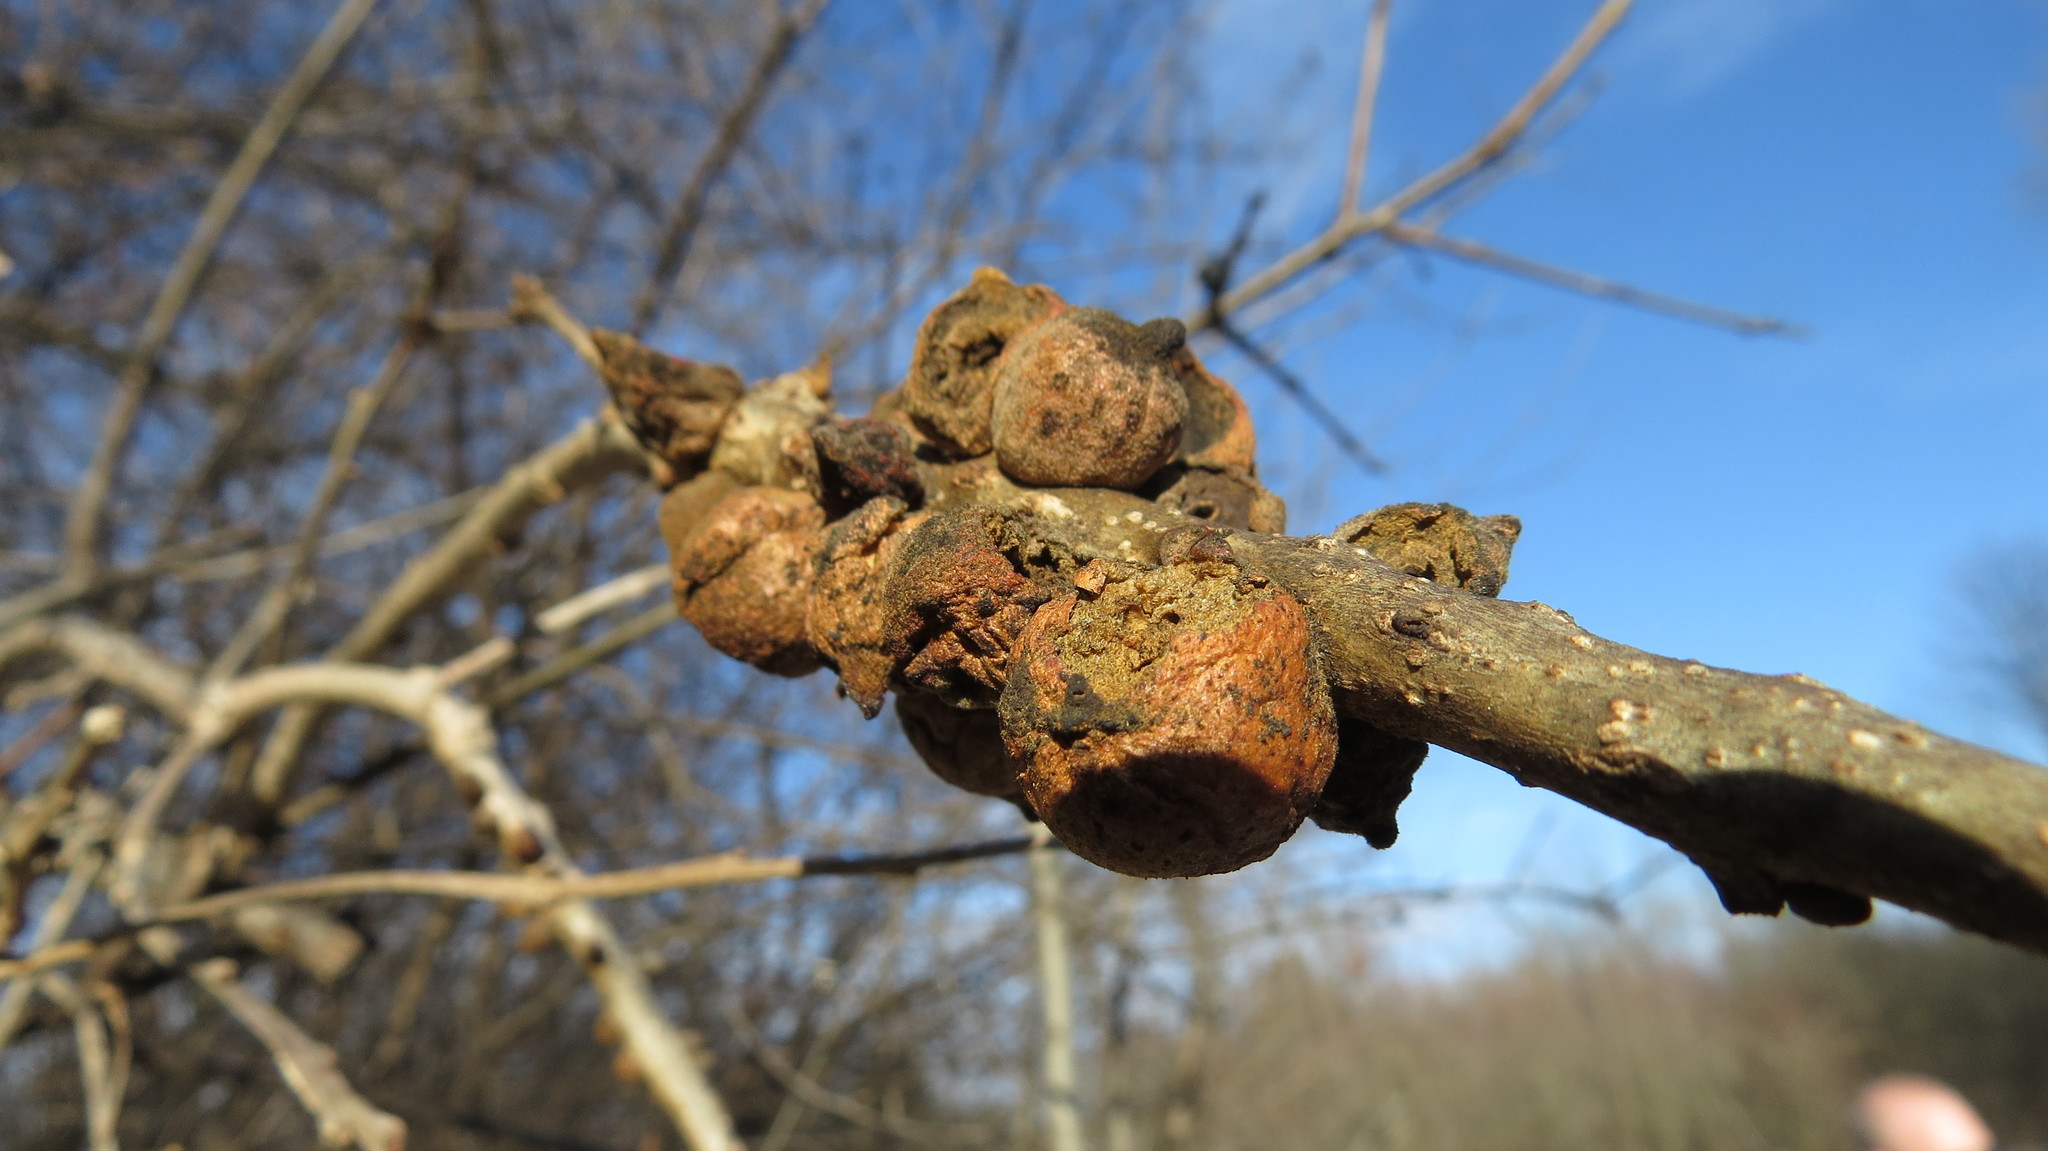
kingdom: Animalia
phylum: Arthropoda
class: Insecta
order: Hymenoptera
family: Cynipidae
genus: Disholcaspis
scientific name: Disholcaspis
